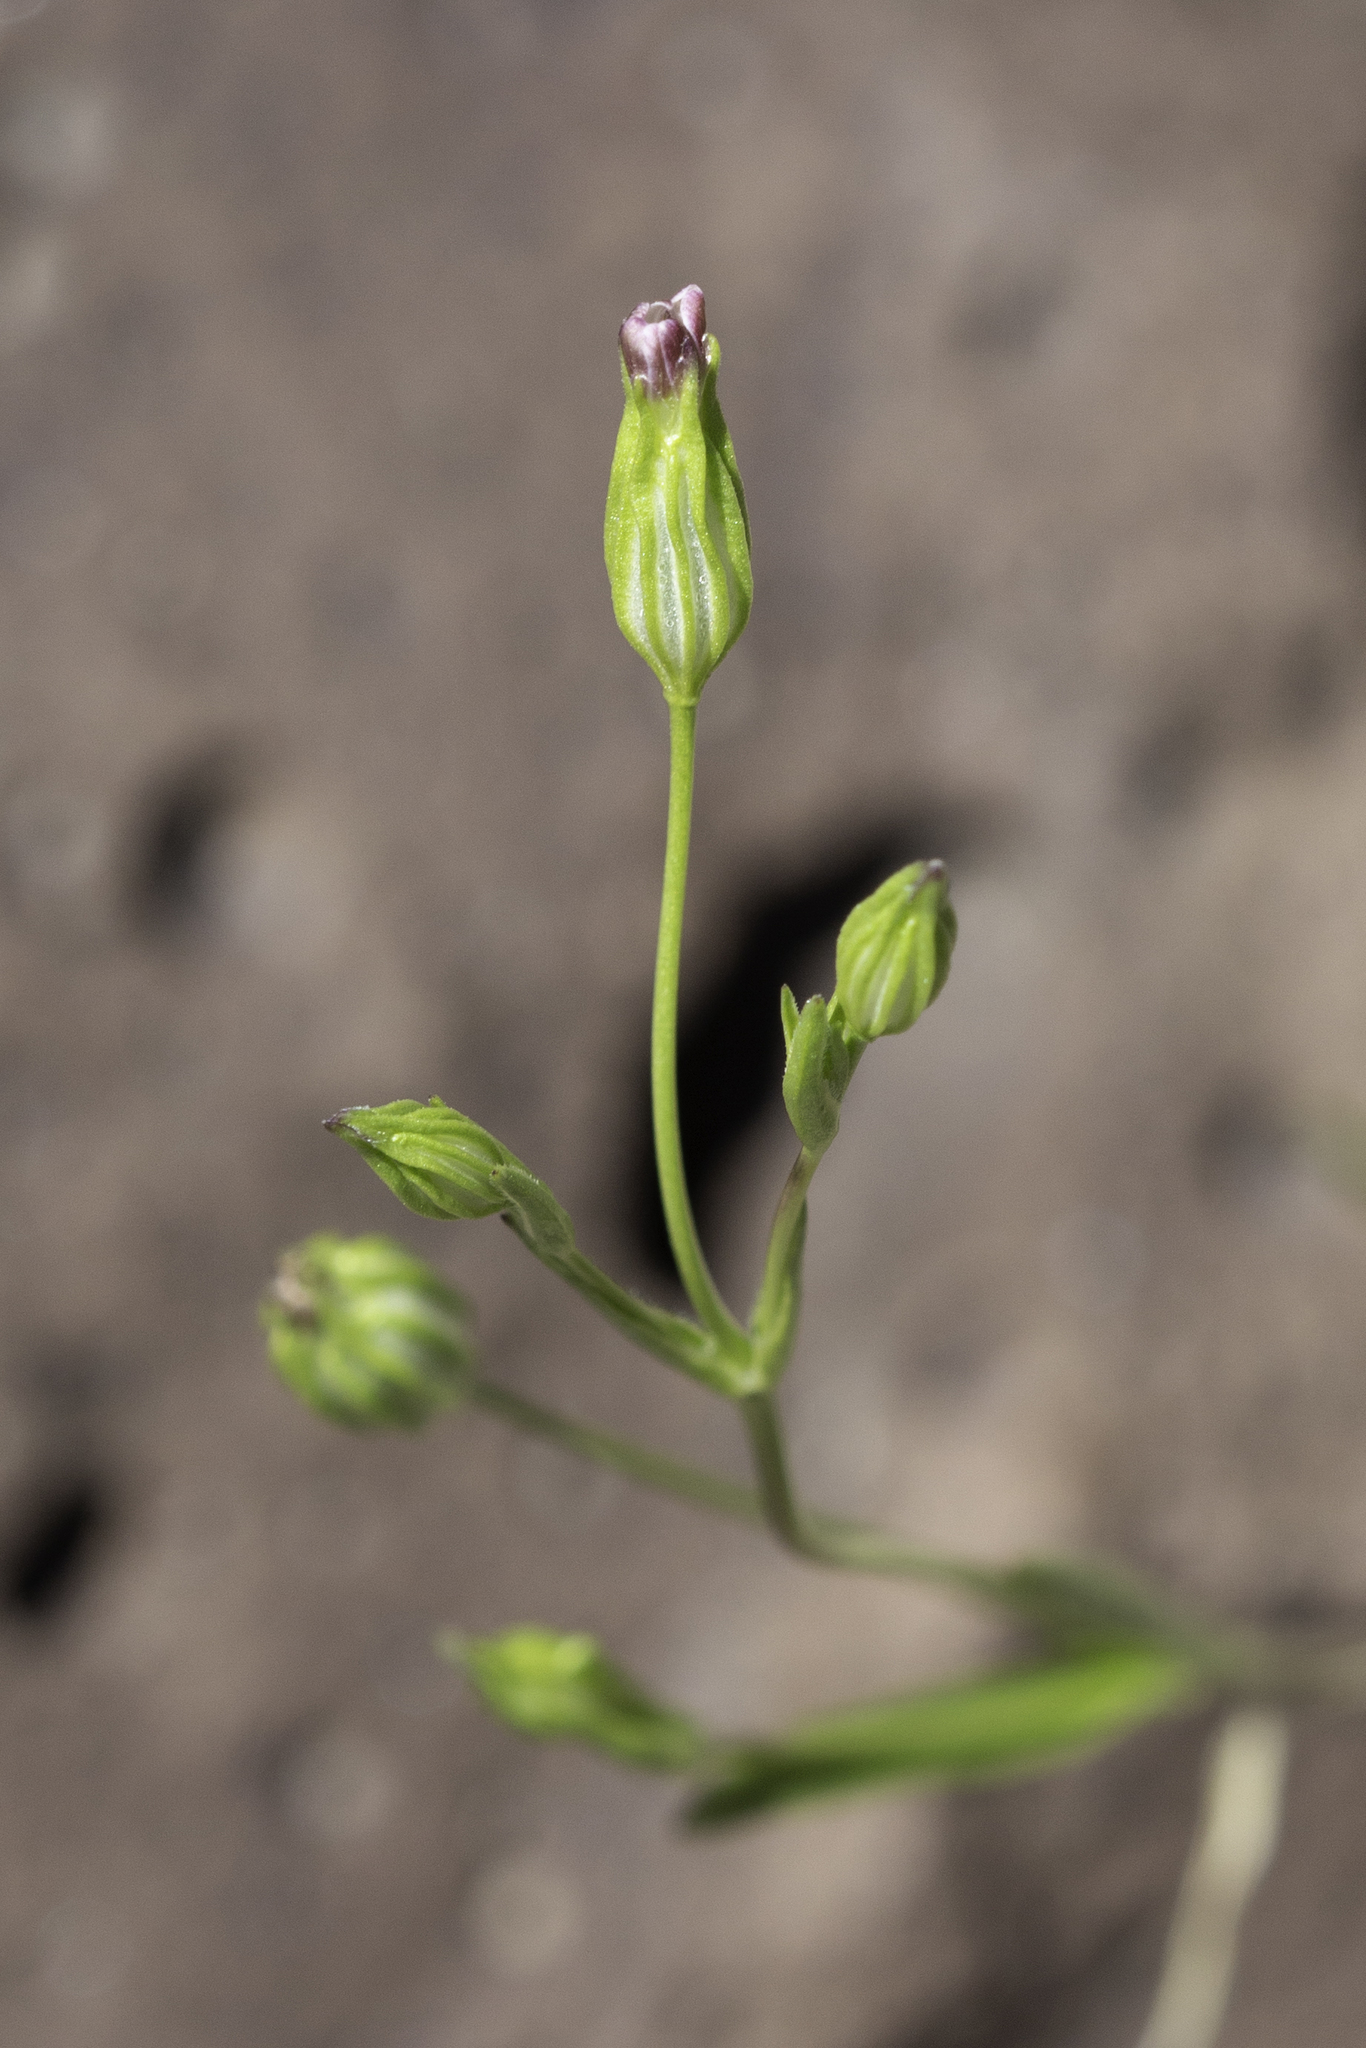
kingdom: Plantae
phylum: Tracheophyta
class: Magnoliopsida
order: Caryophyllales
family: Caryophyllaceae
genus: Silene
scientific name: Silene antirrhina
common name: Sleepy catchfly
